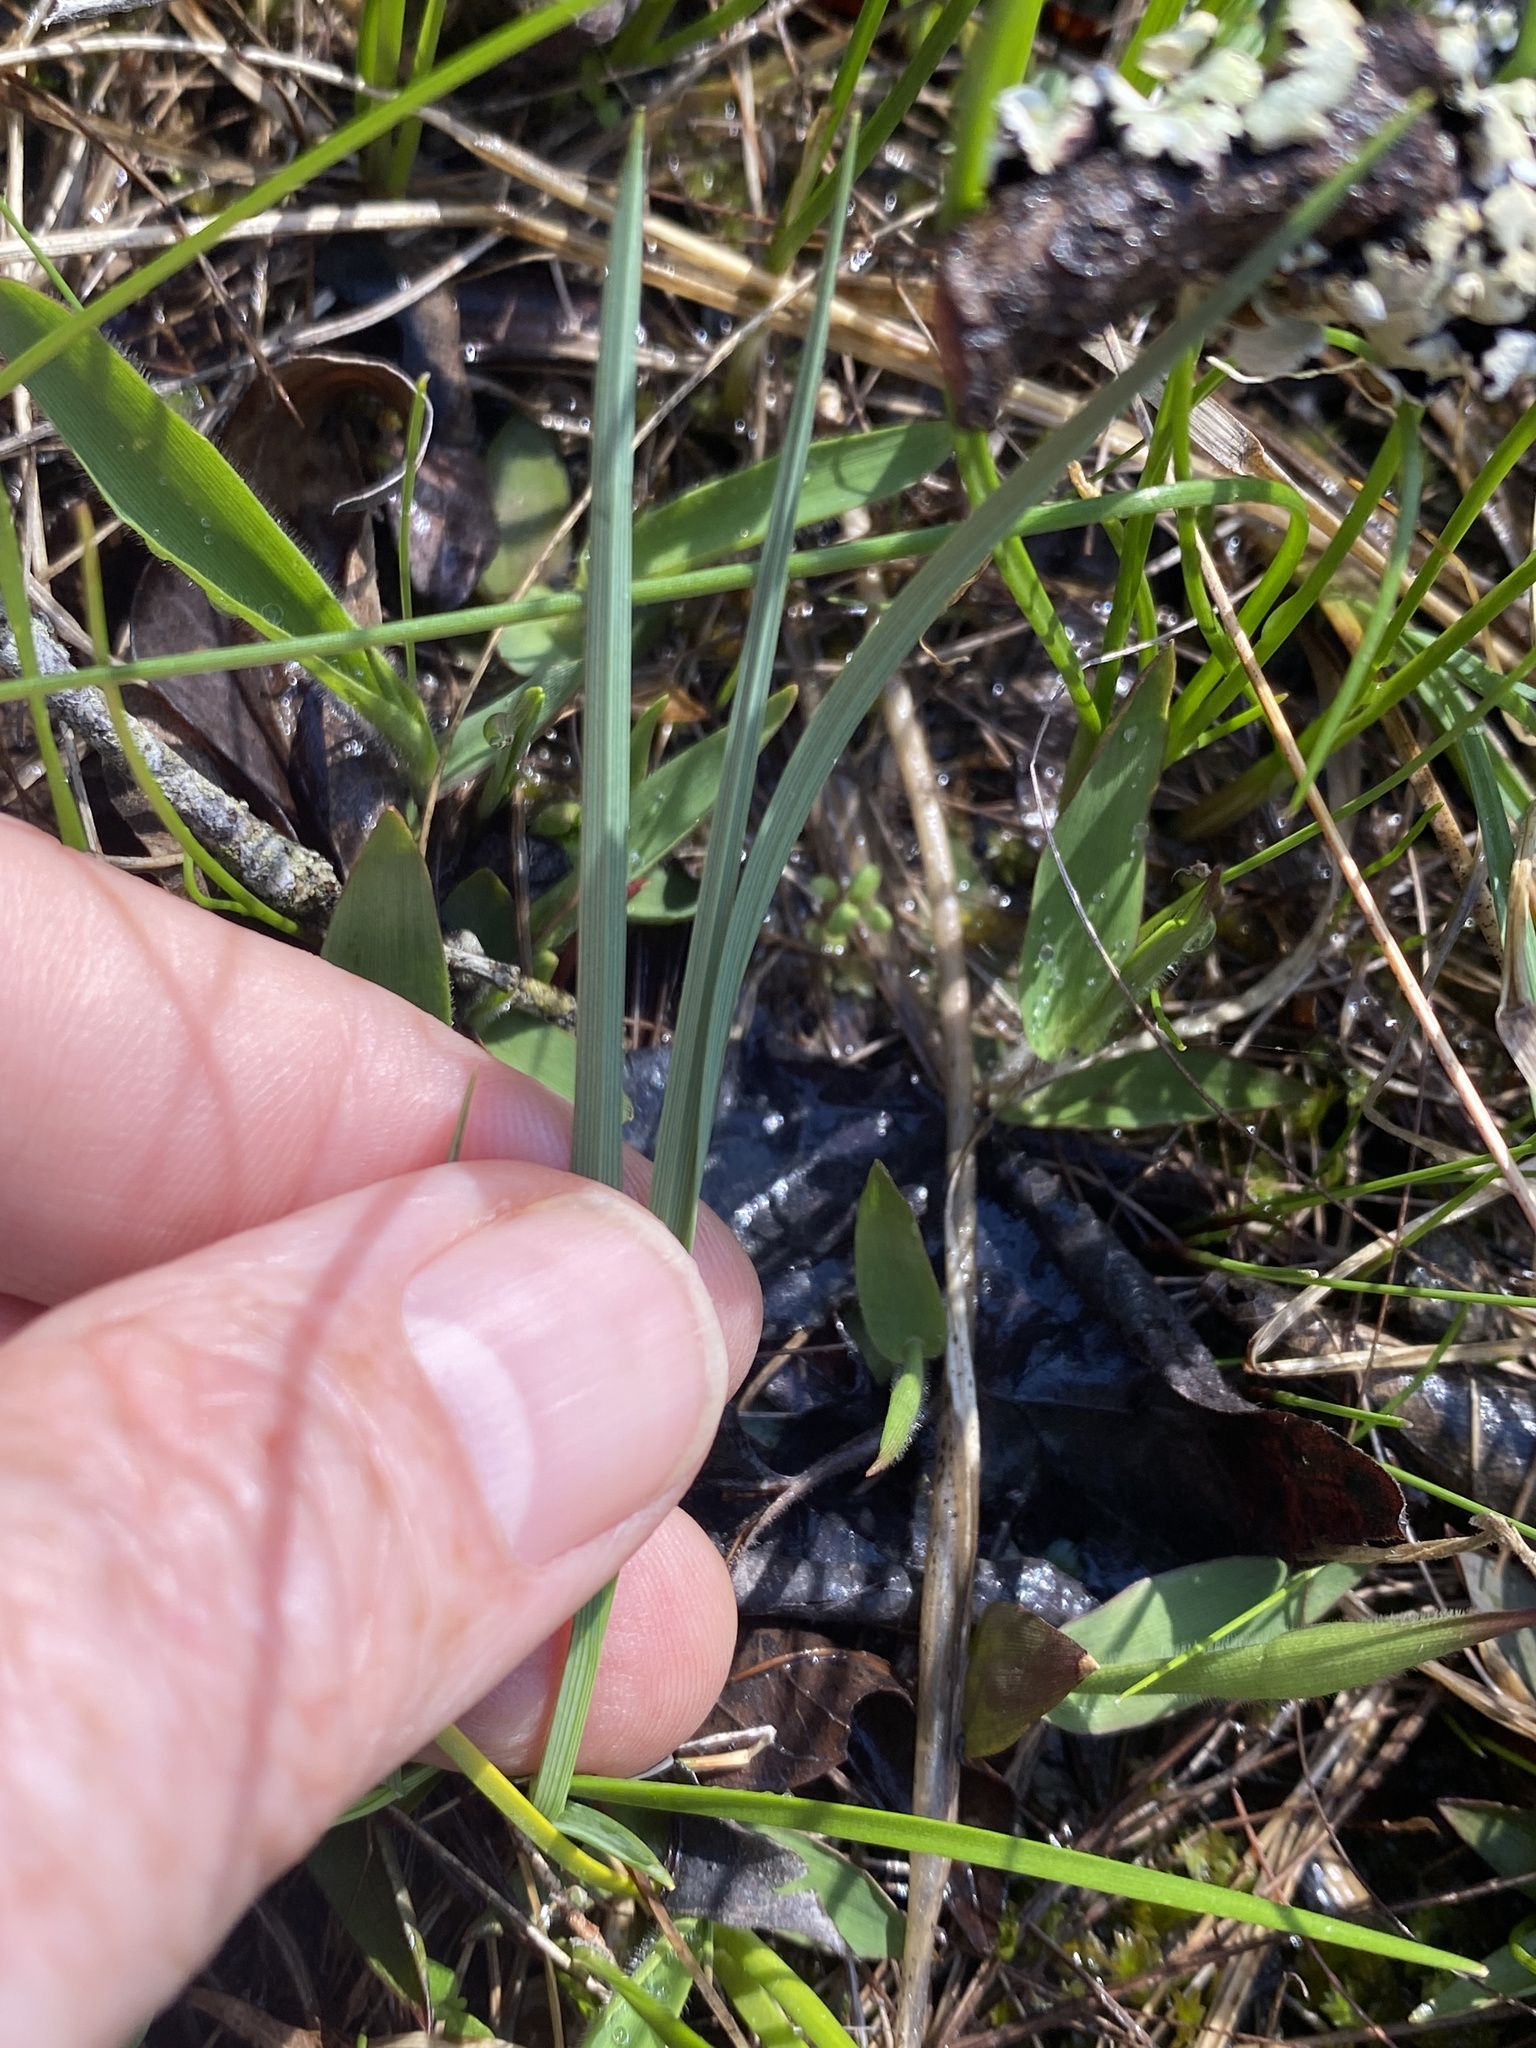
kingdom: Plantae
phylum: Tracheophyta
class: Liliopsida
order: Poales
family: Cyperaceae
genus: Carex
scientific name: Carex meadii
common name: Mead's sedge
